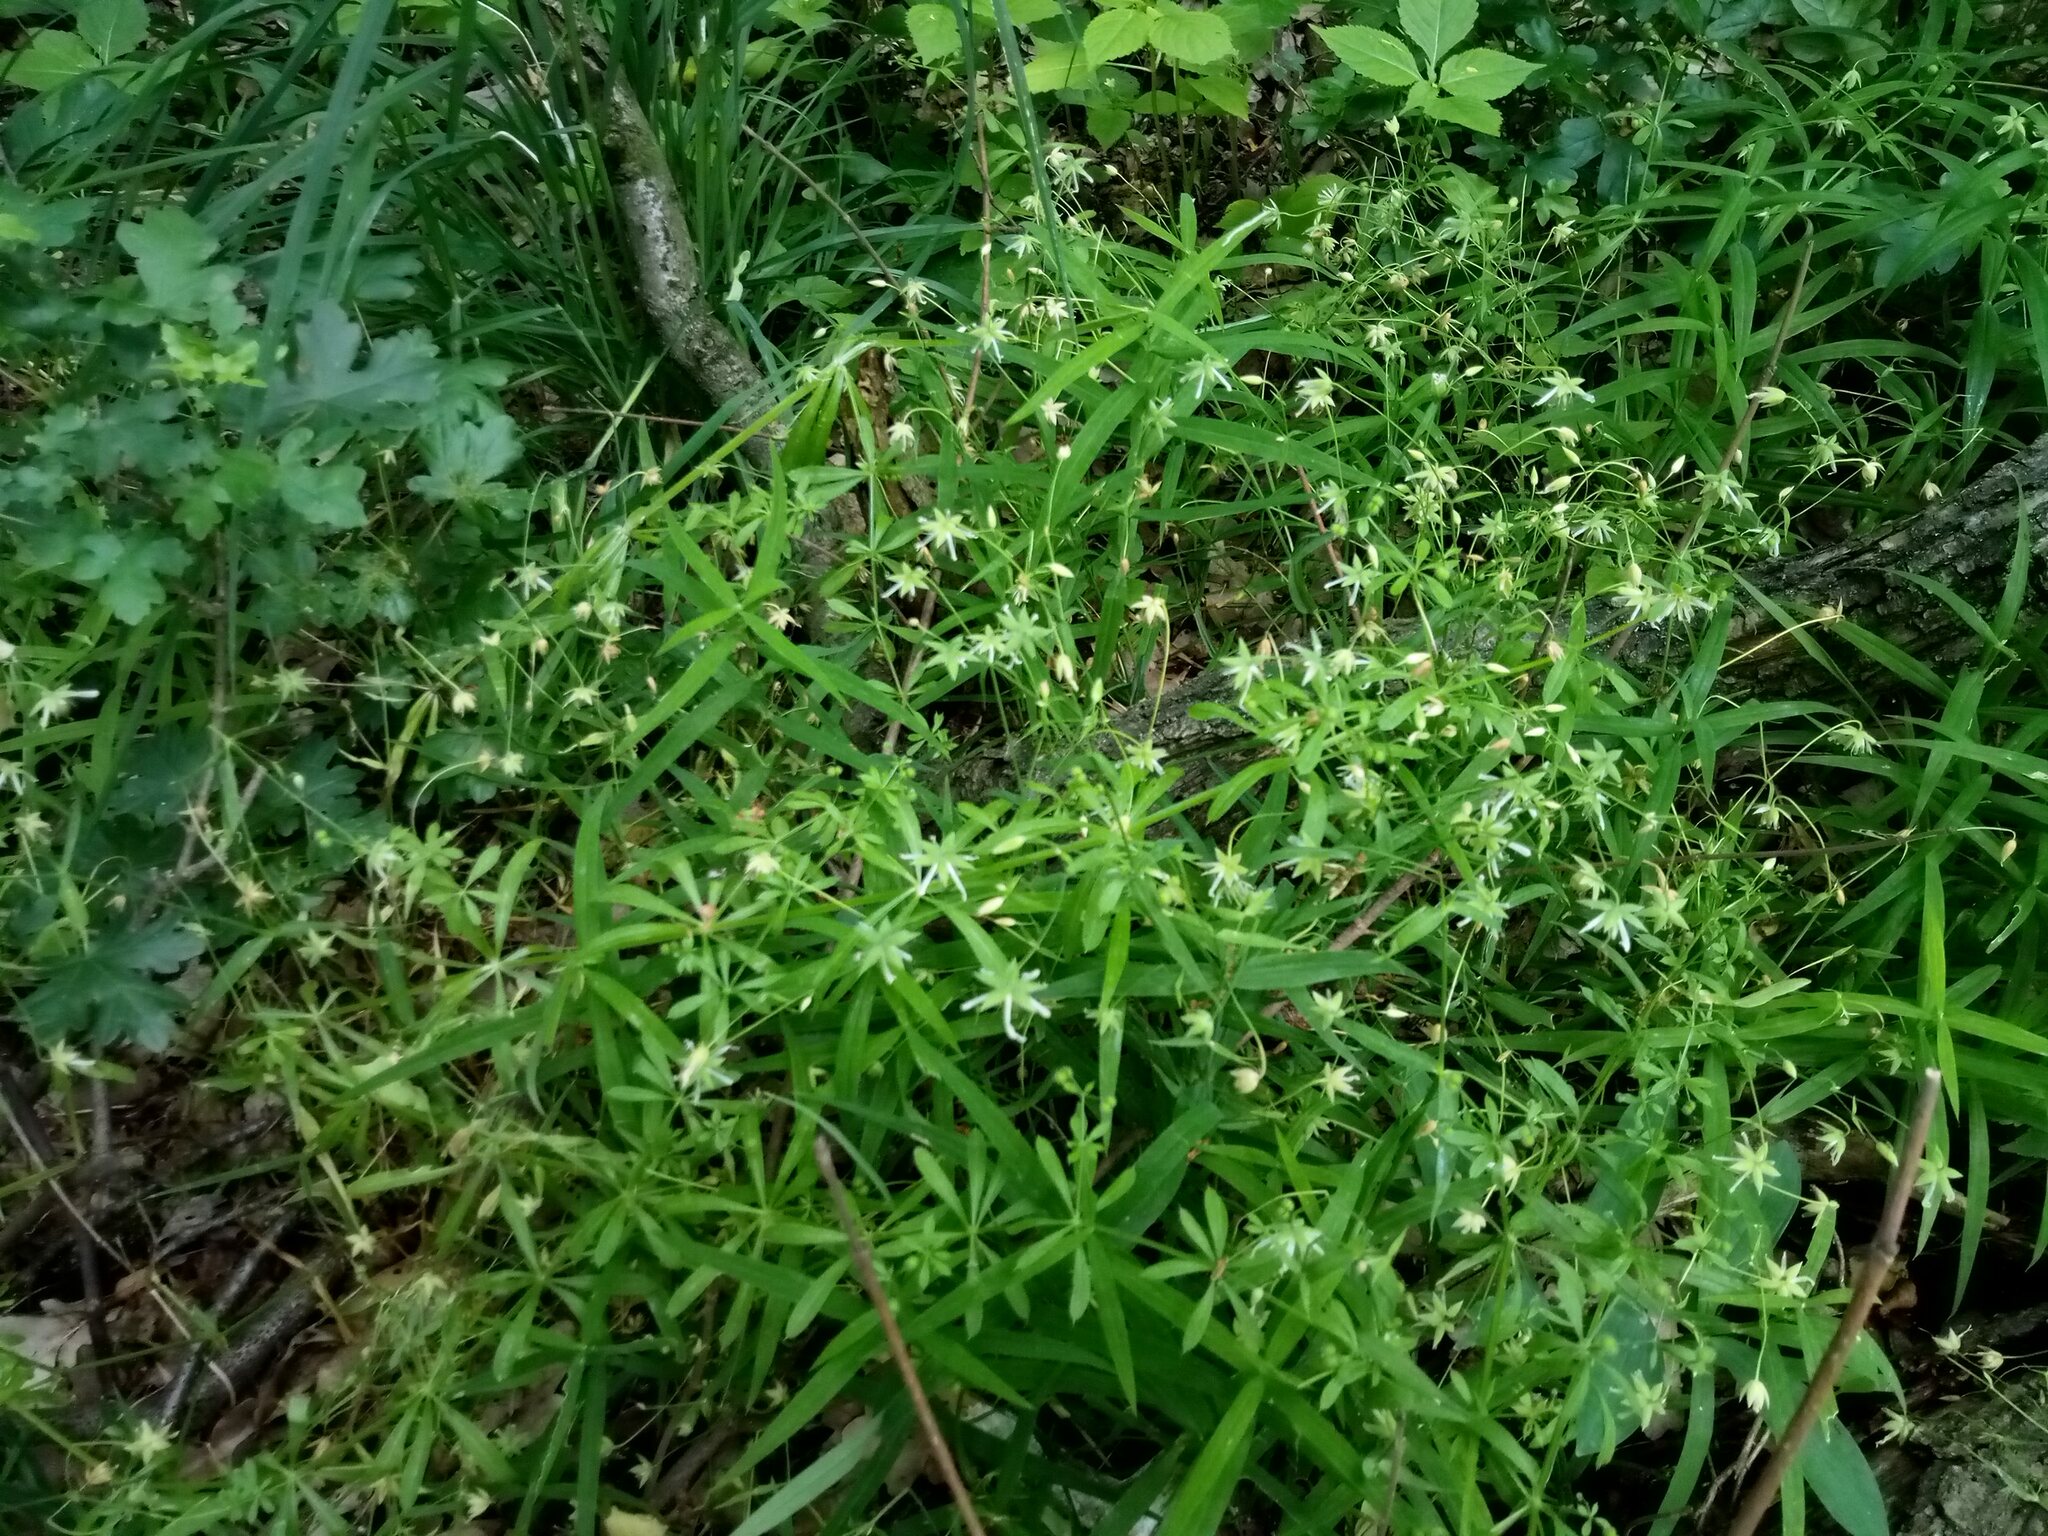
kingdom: Plantae
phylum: Tracheophyta
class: Magnoliopsida
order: Caryophyllales
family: Caryophyllaceae
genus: Rabelera
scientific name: Rabelera holostea
